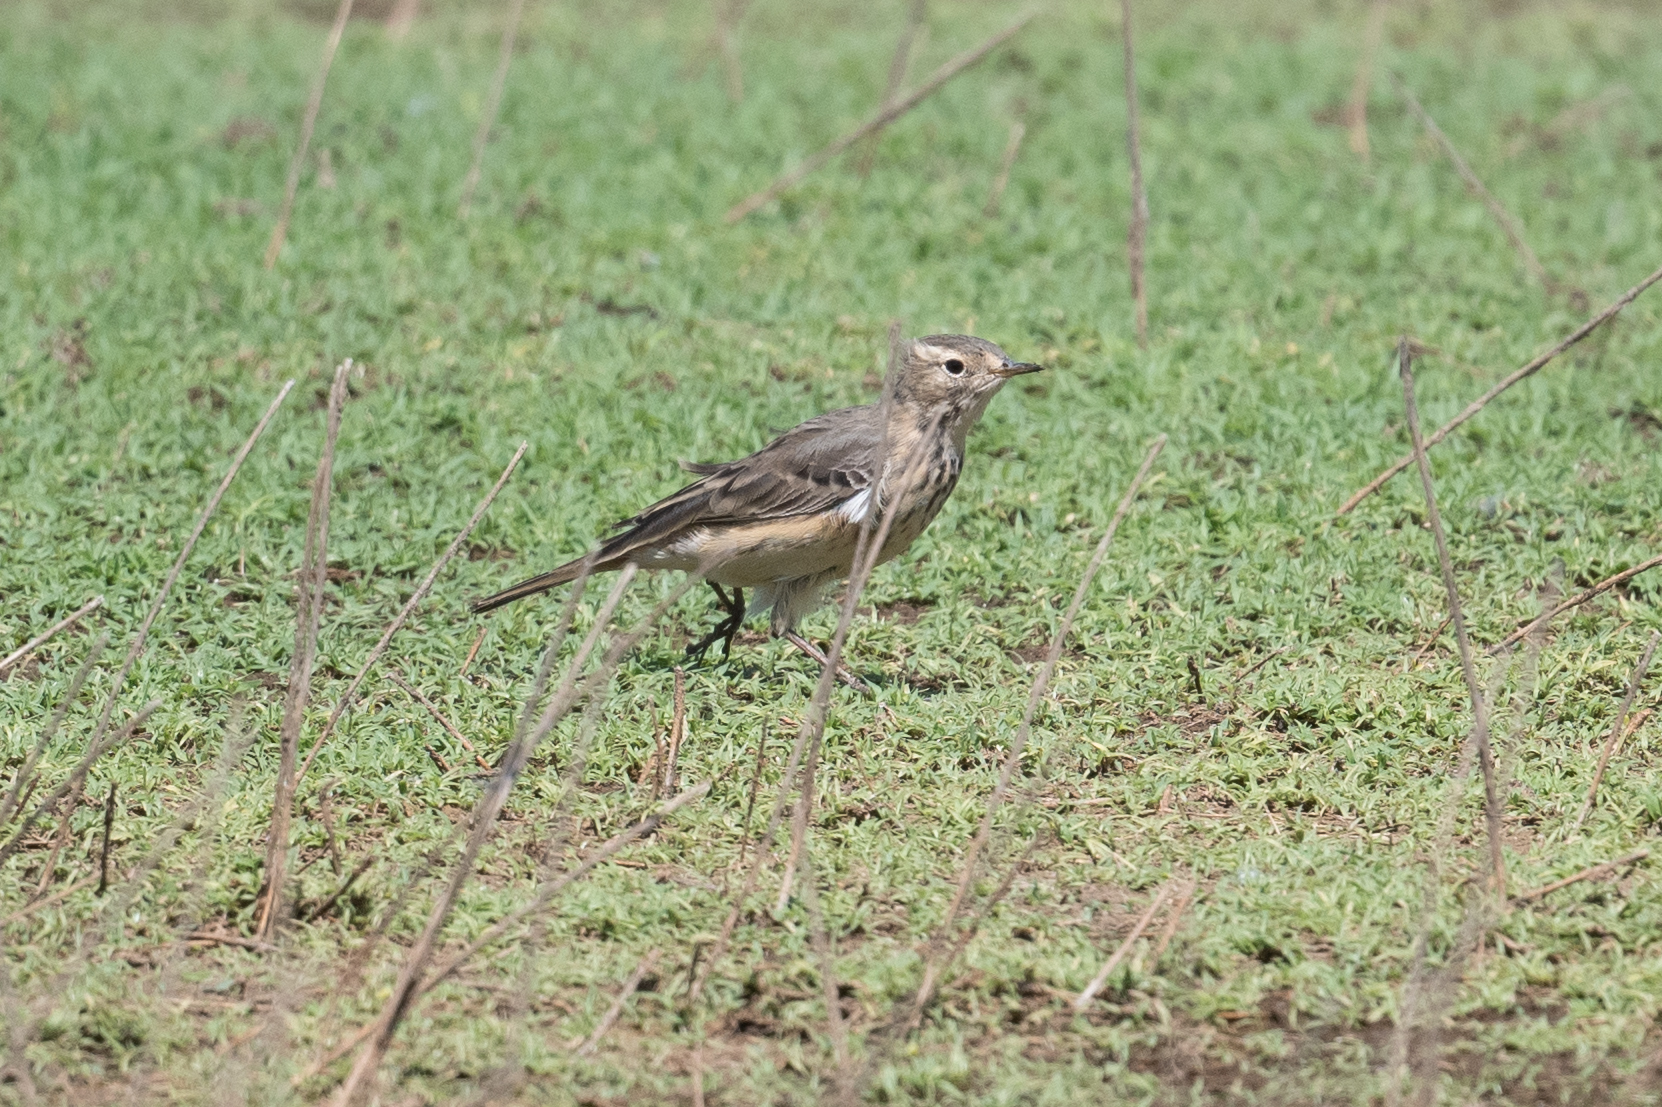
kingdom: Animalia
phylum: Chordata
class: Aves
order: Passeriformes
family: Motacillidae
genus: Anthus
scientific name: Anthus rubescens
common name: Buff-bellied pipit
